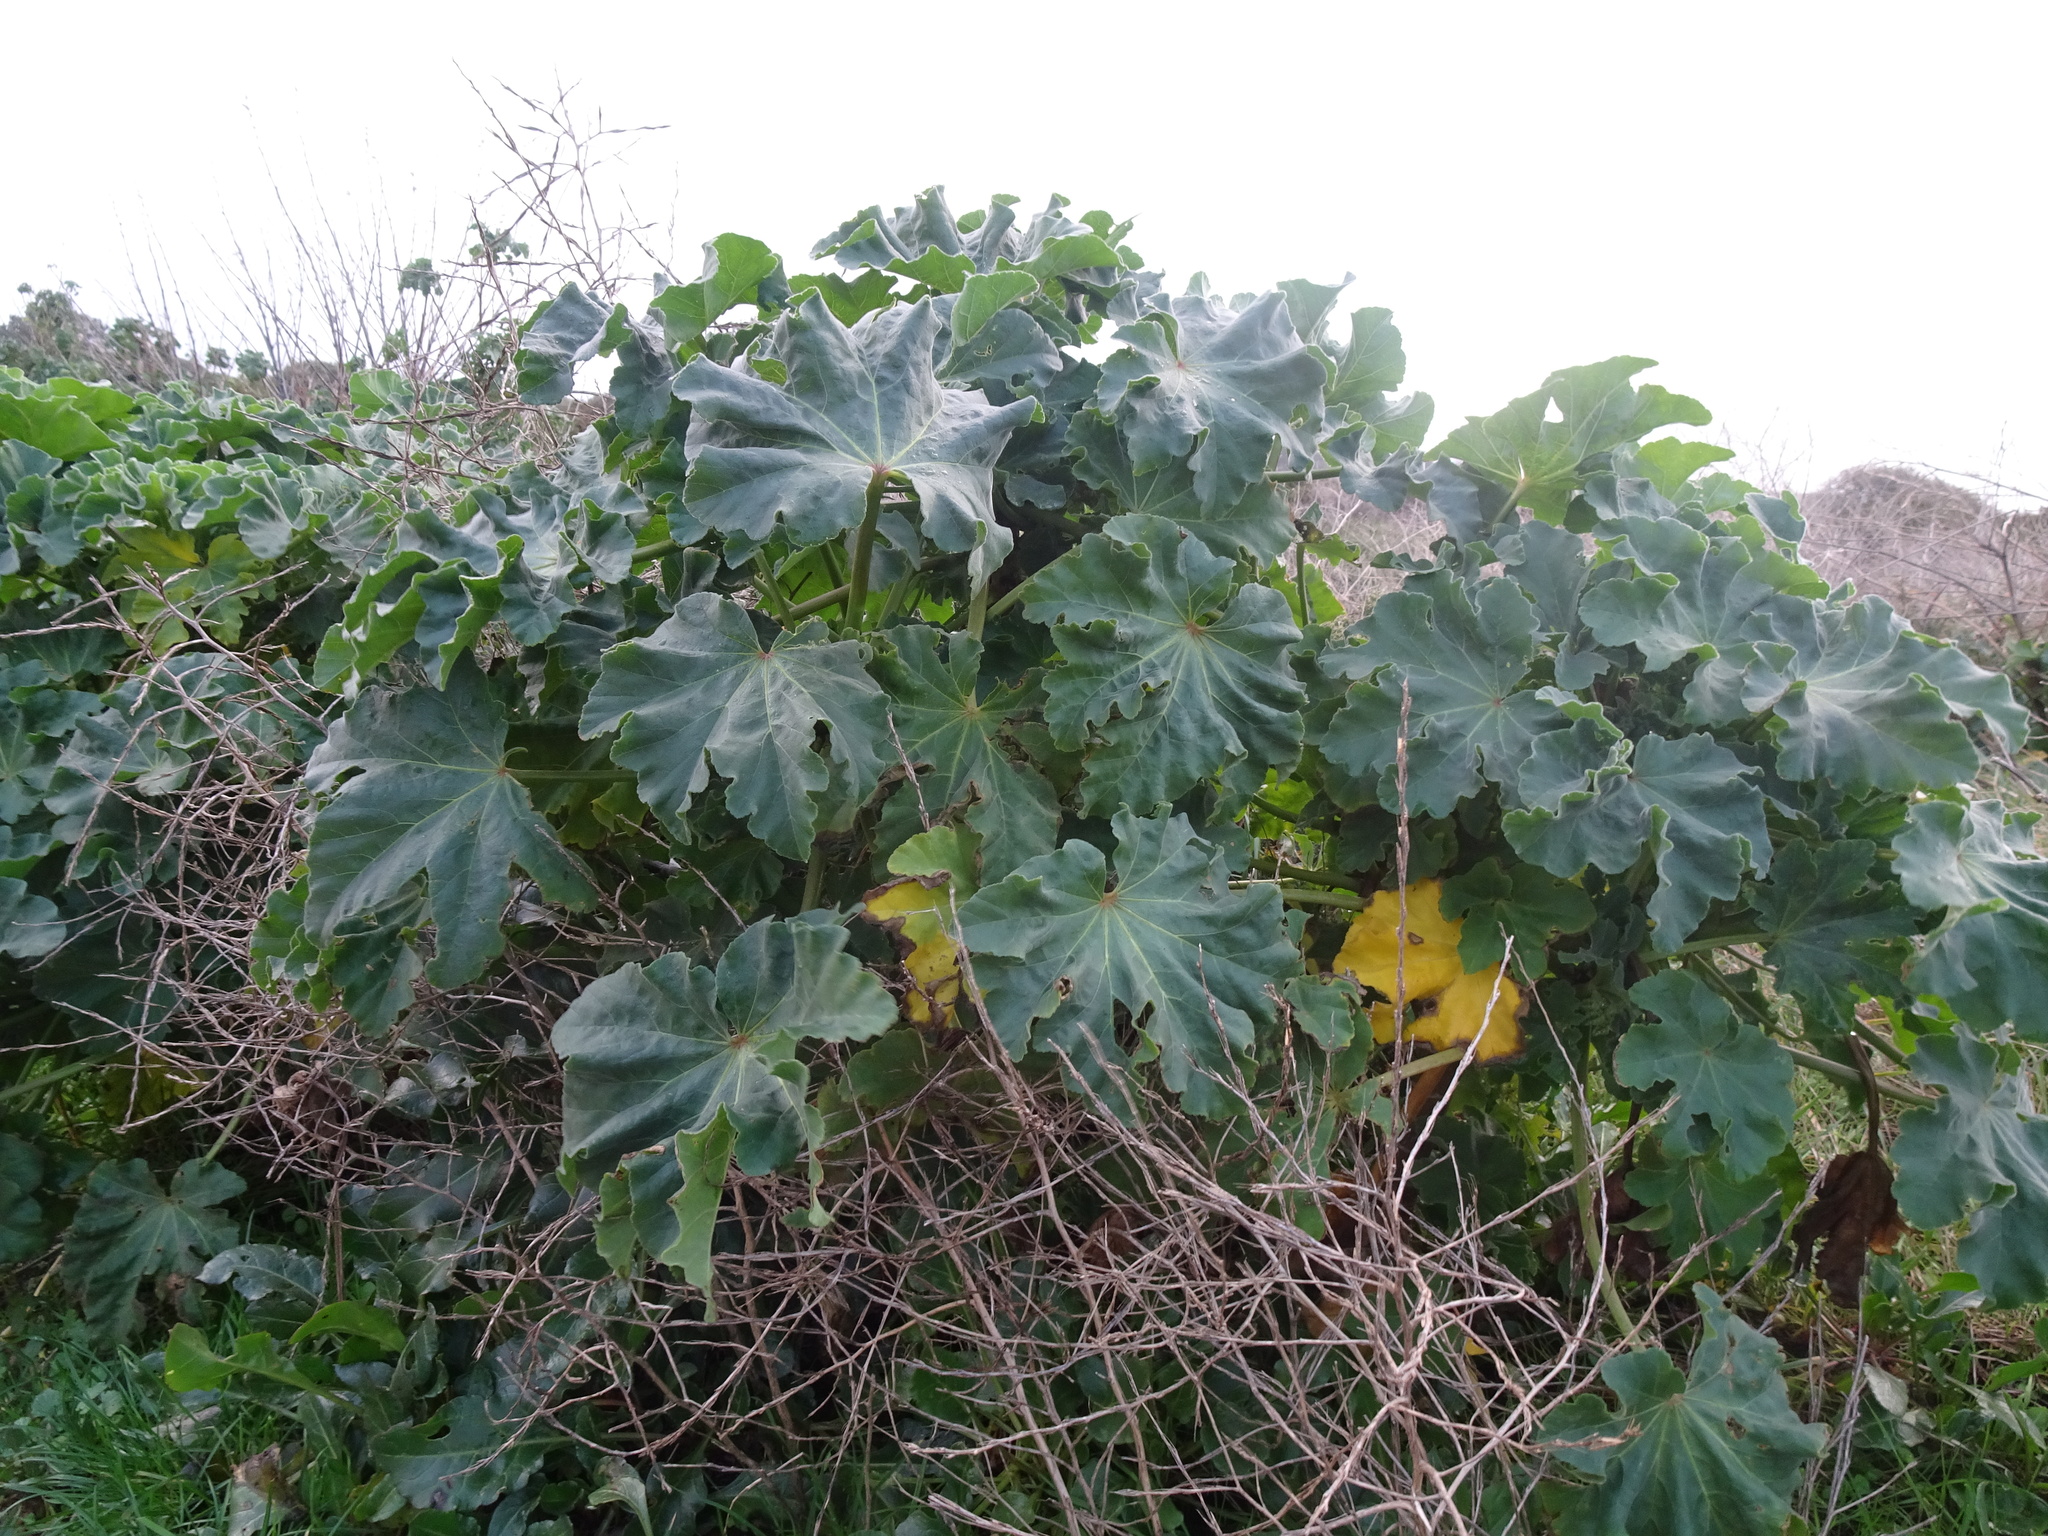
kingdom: Plantae
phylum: Tracheophyta
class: Magnoliopsida
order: Malvales
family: Malvaceae
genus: Malva
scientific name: Malva arborea
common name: Tree mallow
